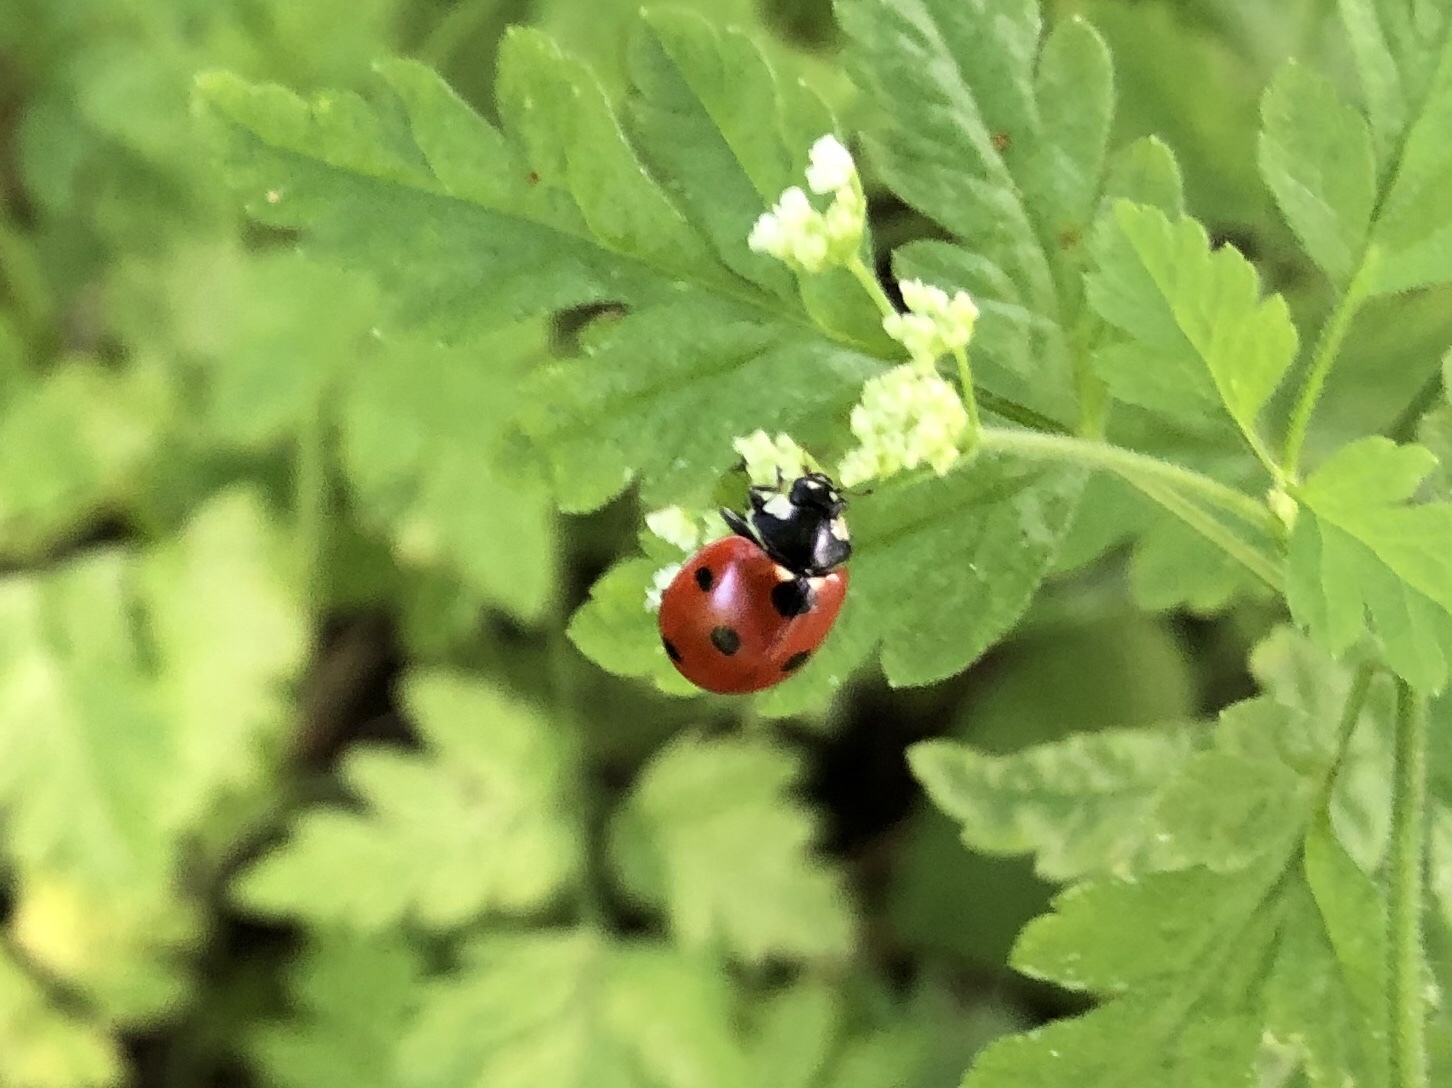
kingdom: Animalia
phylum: Arthropoda
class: Insecta
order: Coleoptera
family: Coccinellidae
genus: Coccinella
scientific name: Coccinella septempunctata
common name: Sevenspotted lady beetle
